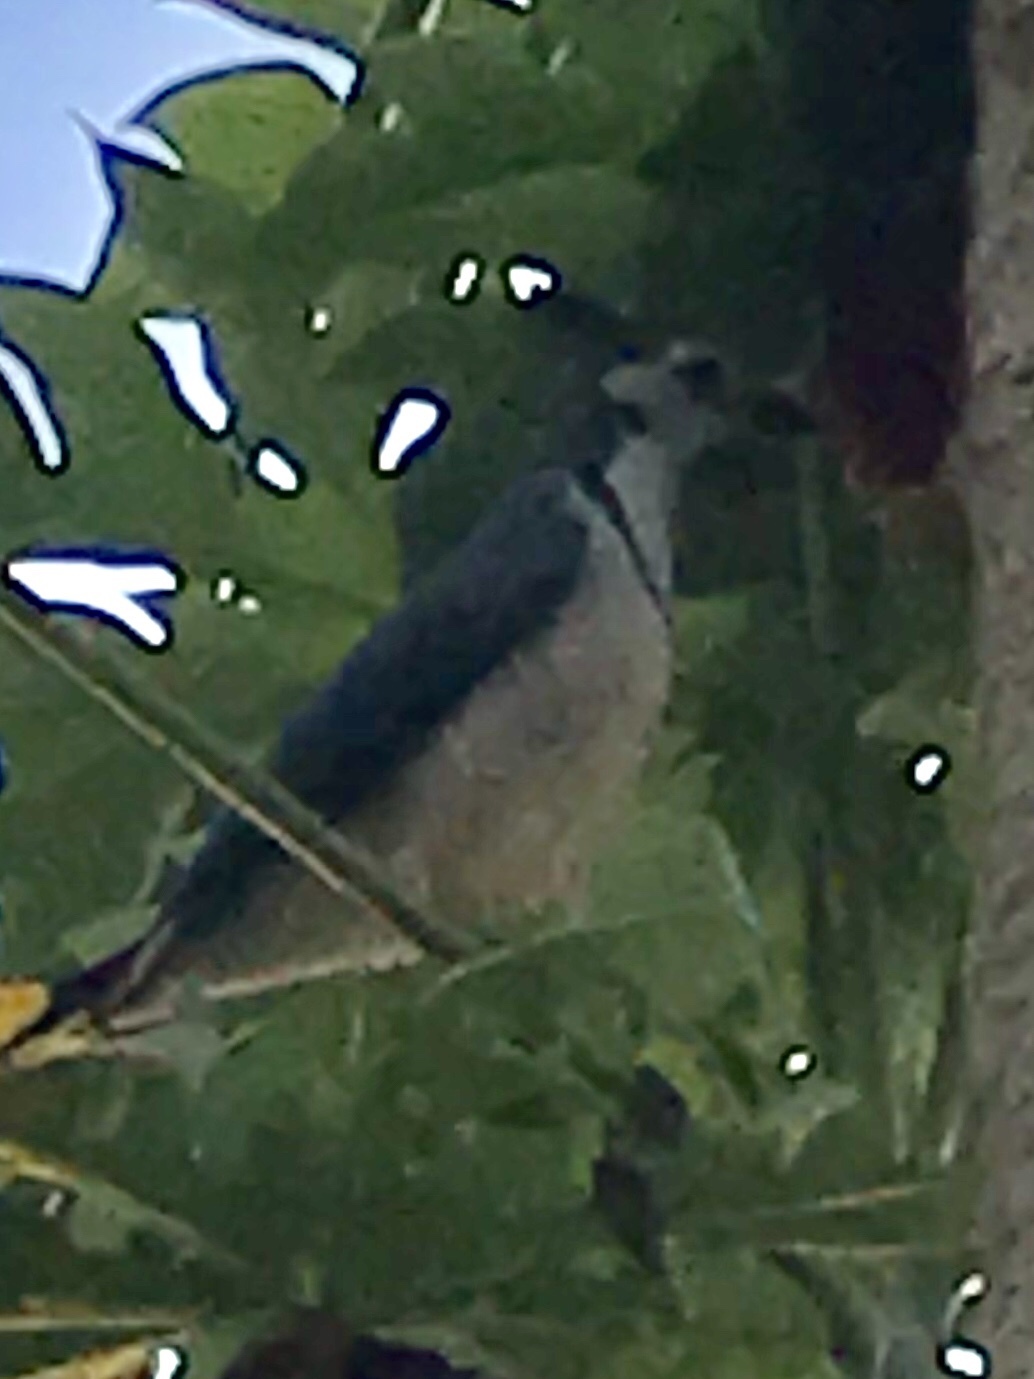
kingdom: Animalia
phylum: Chordata
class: Aves
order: Passeriformes
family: Corvidae
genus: Calocitta
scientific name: Calocitta formosa
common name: White-throated magpie-jay
